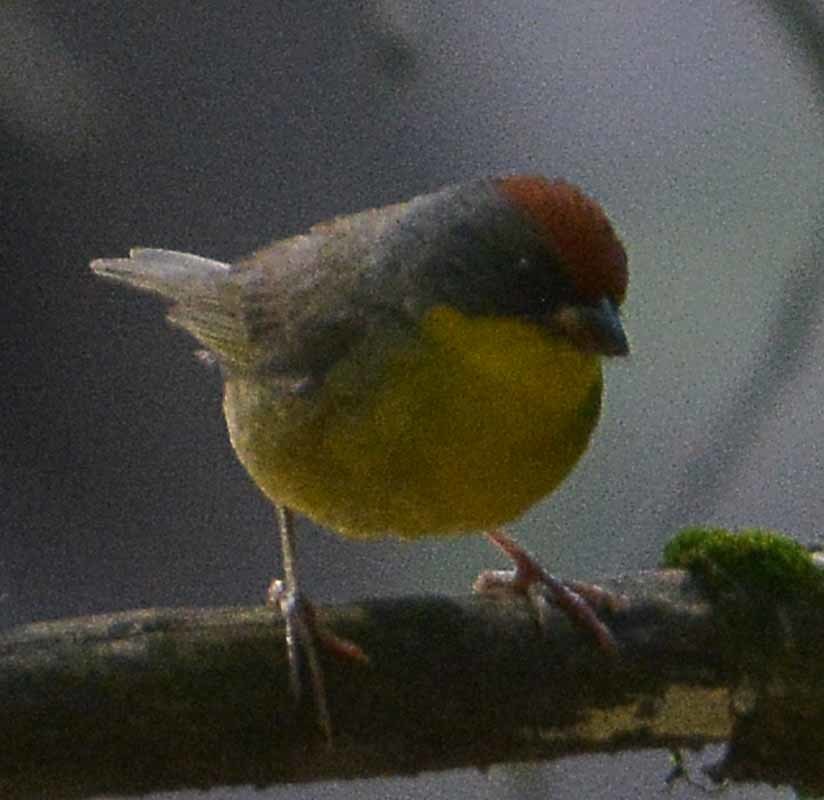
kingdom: Animalia
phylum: Chordata
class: Aves
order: Passeriformes
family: Passerellidae
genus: Atlapetes
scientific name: Atlapetes pileatus
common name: Rufous-capped brush-finch
